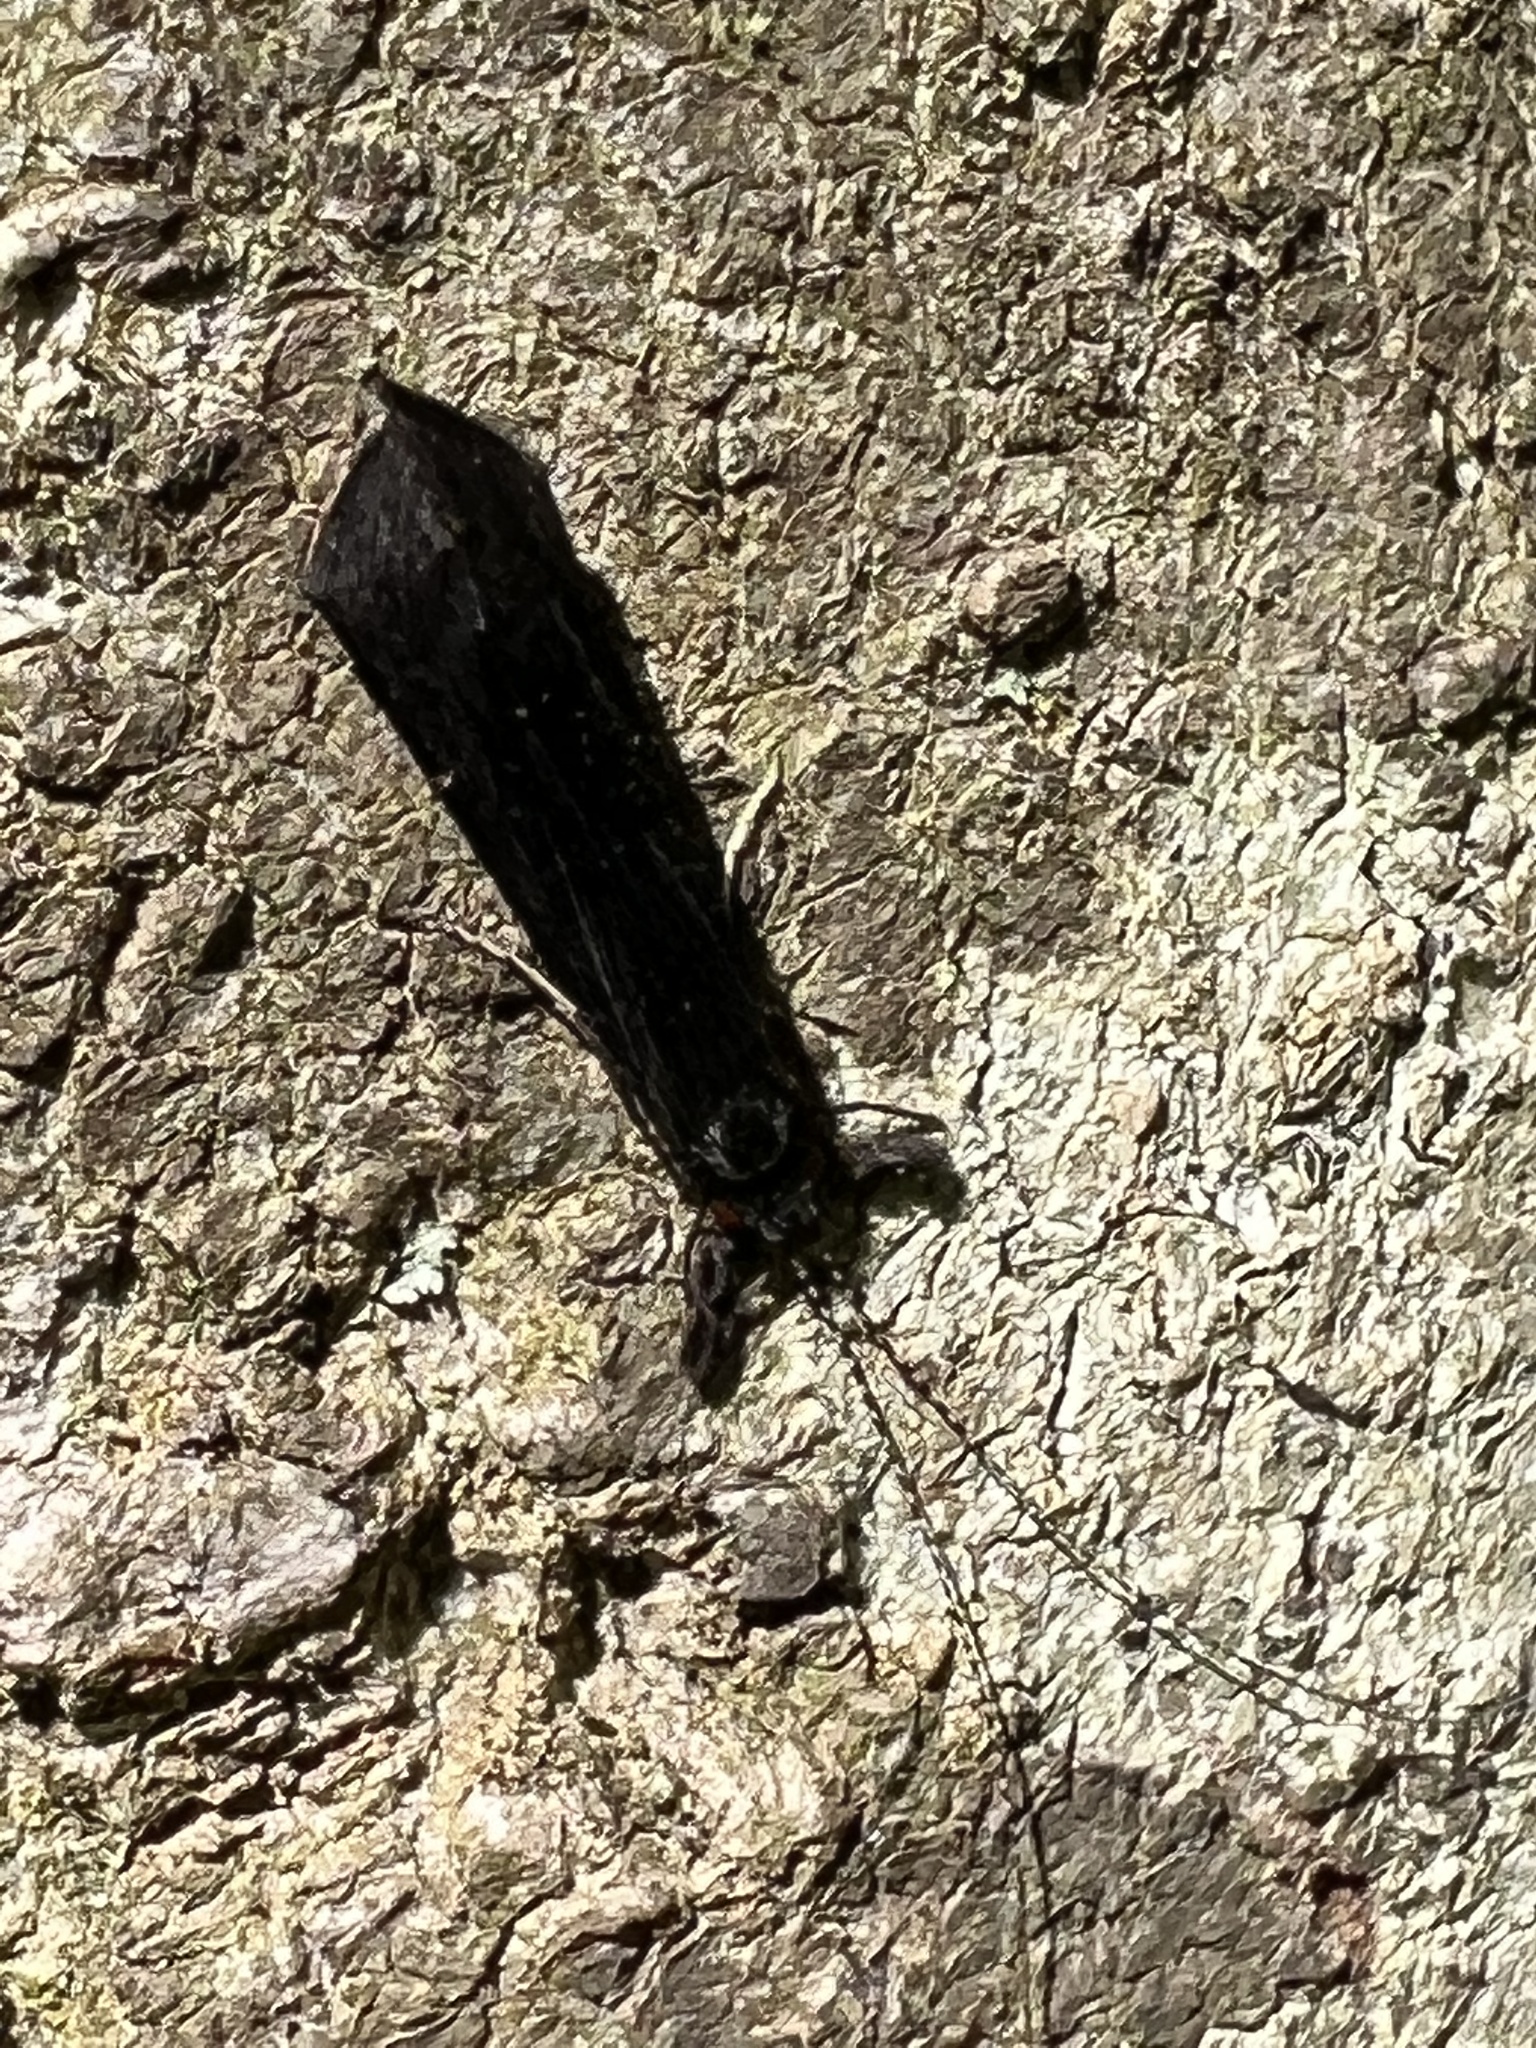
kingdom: Animalia
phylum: Arthropoda
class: Insecta
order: Trichoptera
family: Leptoceridae
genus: Mystacides
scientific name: Mystacides sepulchralis
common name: Black dancer caddisfly
